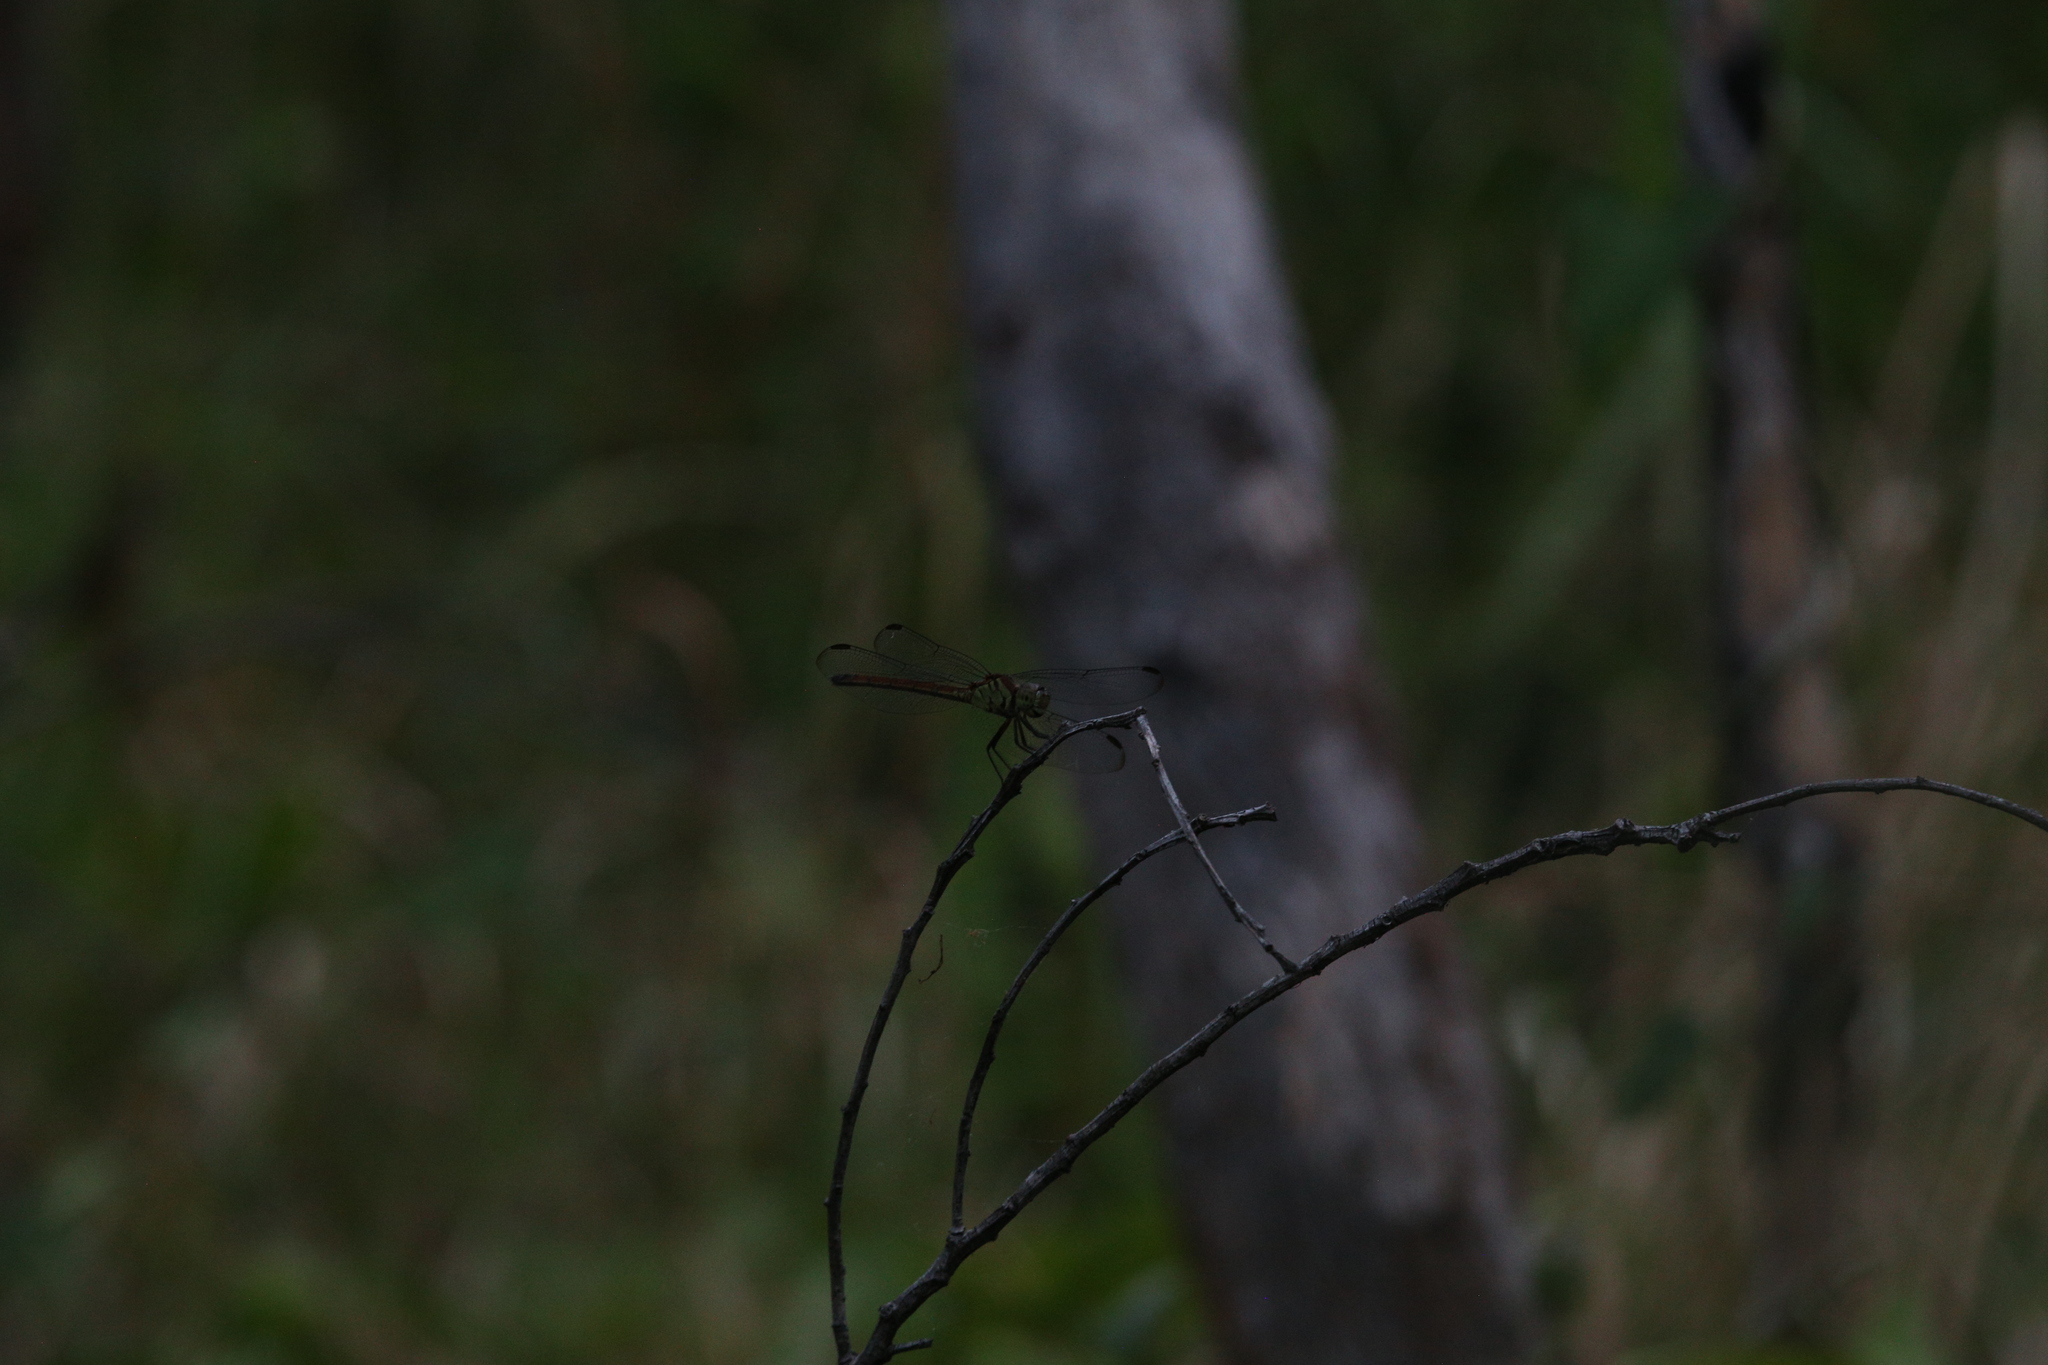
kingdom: Animalia
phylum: Arthropoda
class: Insecta
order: Odonata
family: Libellulidae
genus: Lathrecista
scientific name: Lathrecista asiatica
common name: Scarlet grenadier
